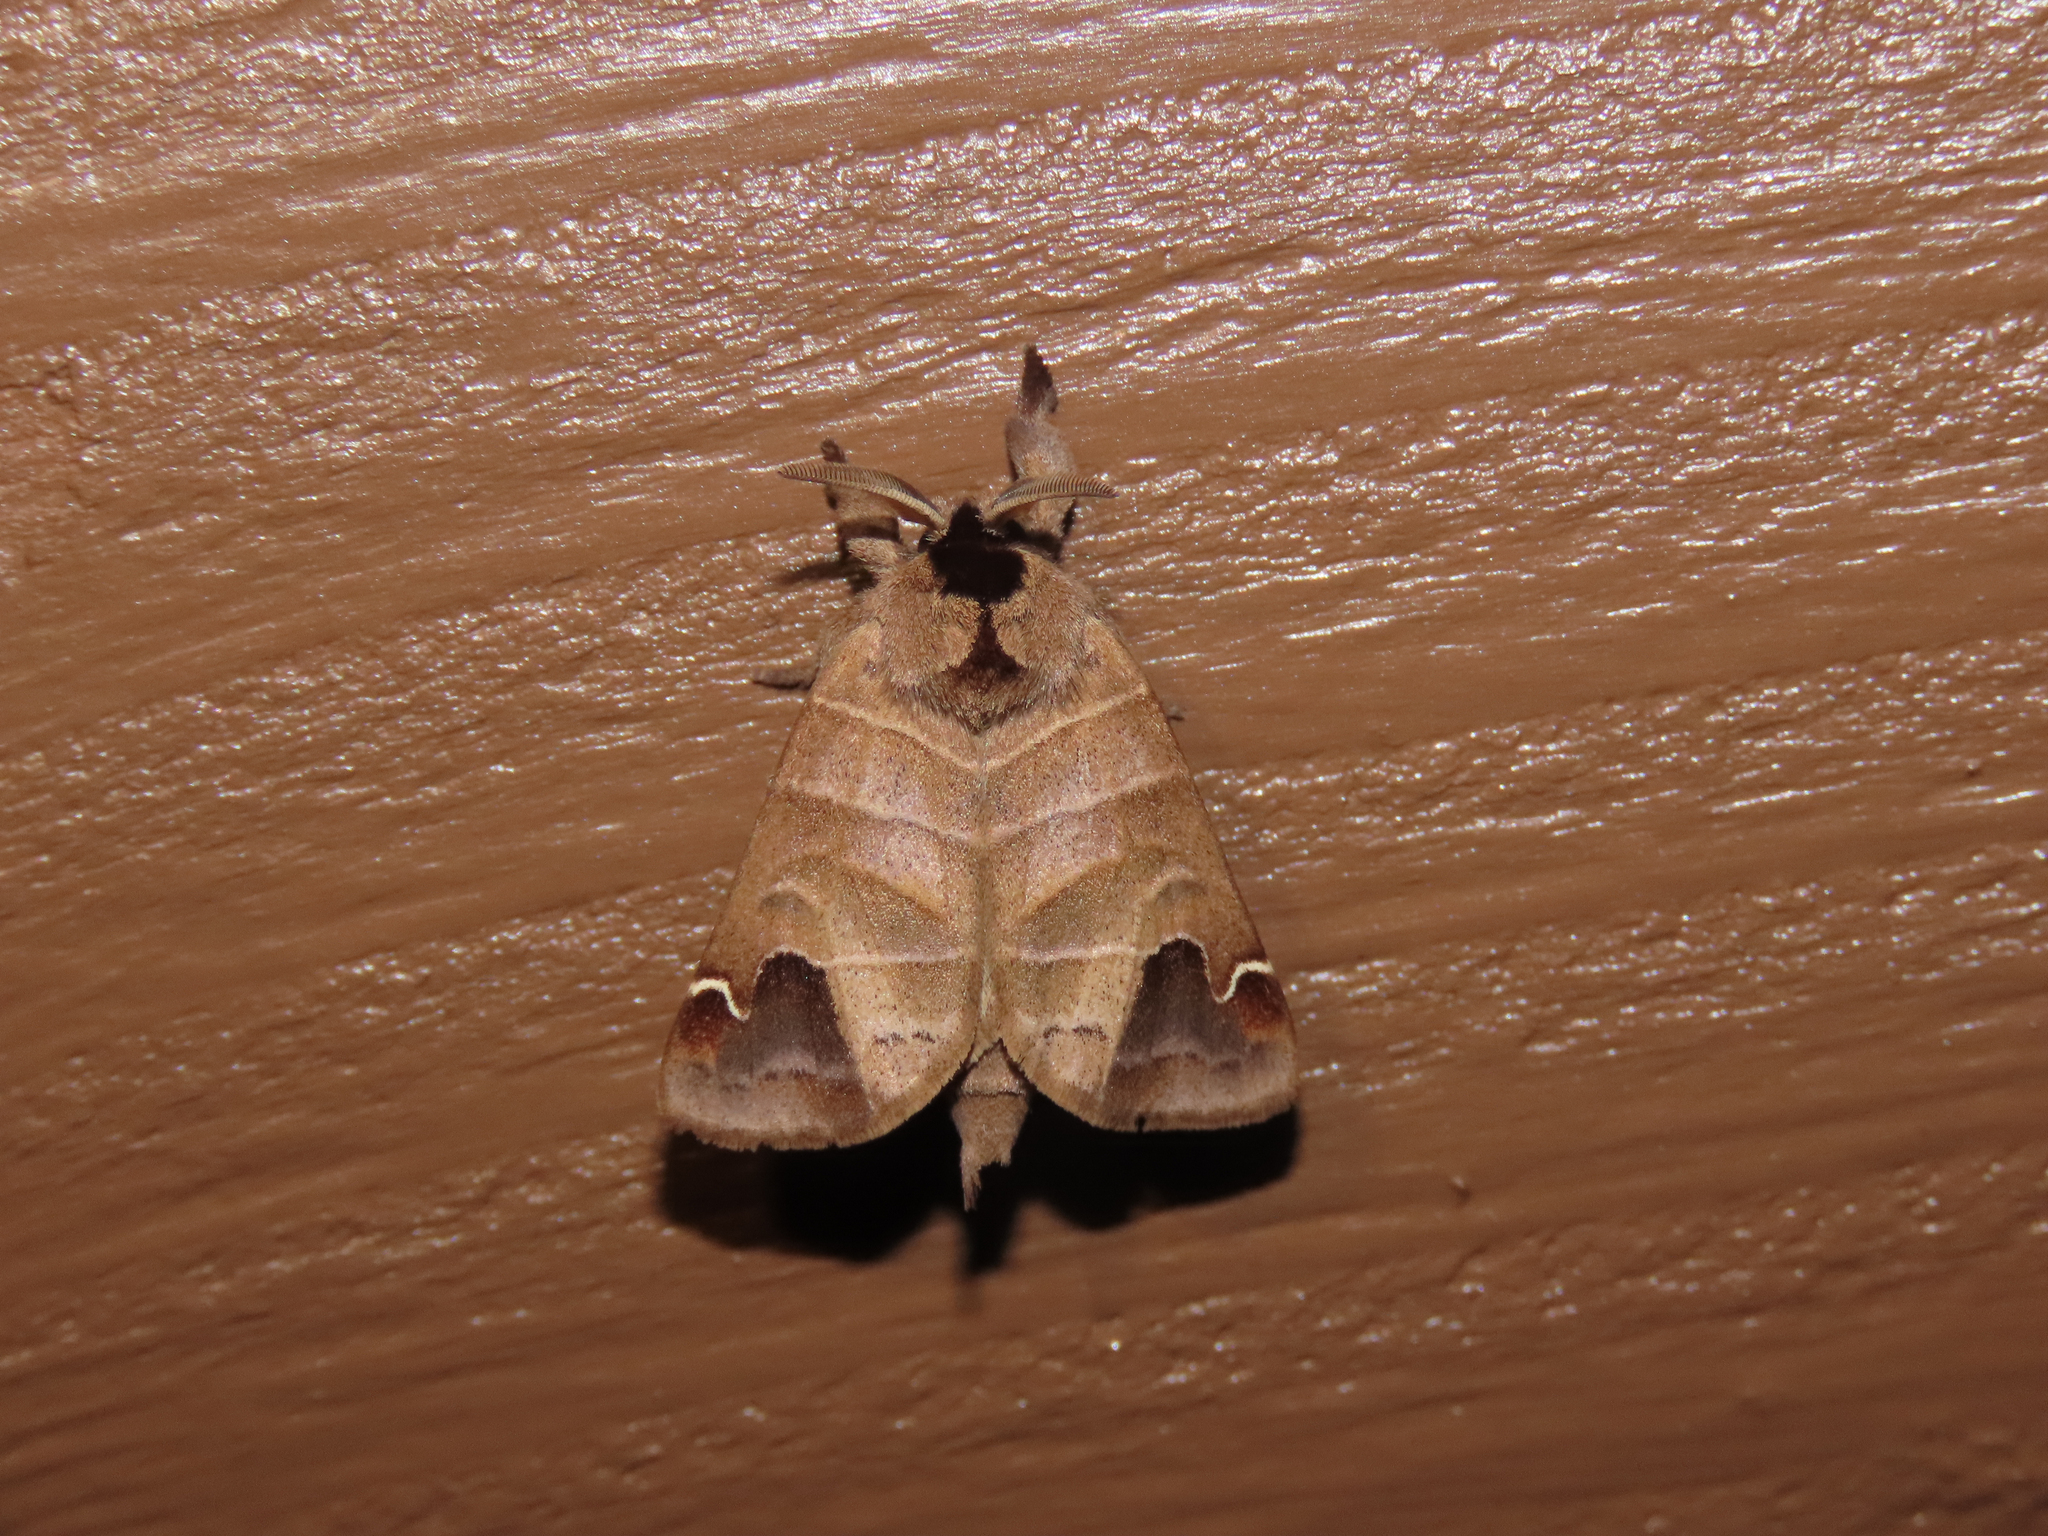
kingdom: Animalia
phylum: Arthropoda
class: Insecta
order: Lepidoptera
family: Notodontidae
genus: Clostera
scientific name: Clostera albosigma
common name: Sigmoid prominent
